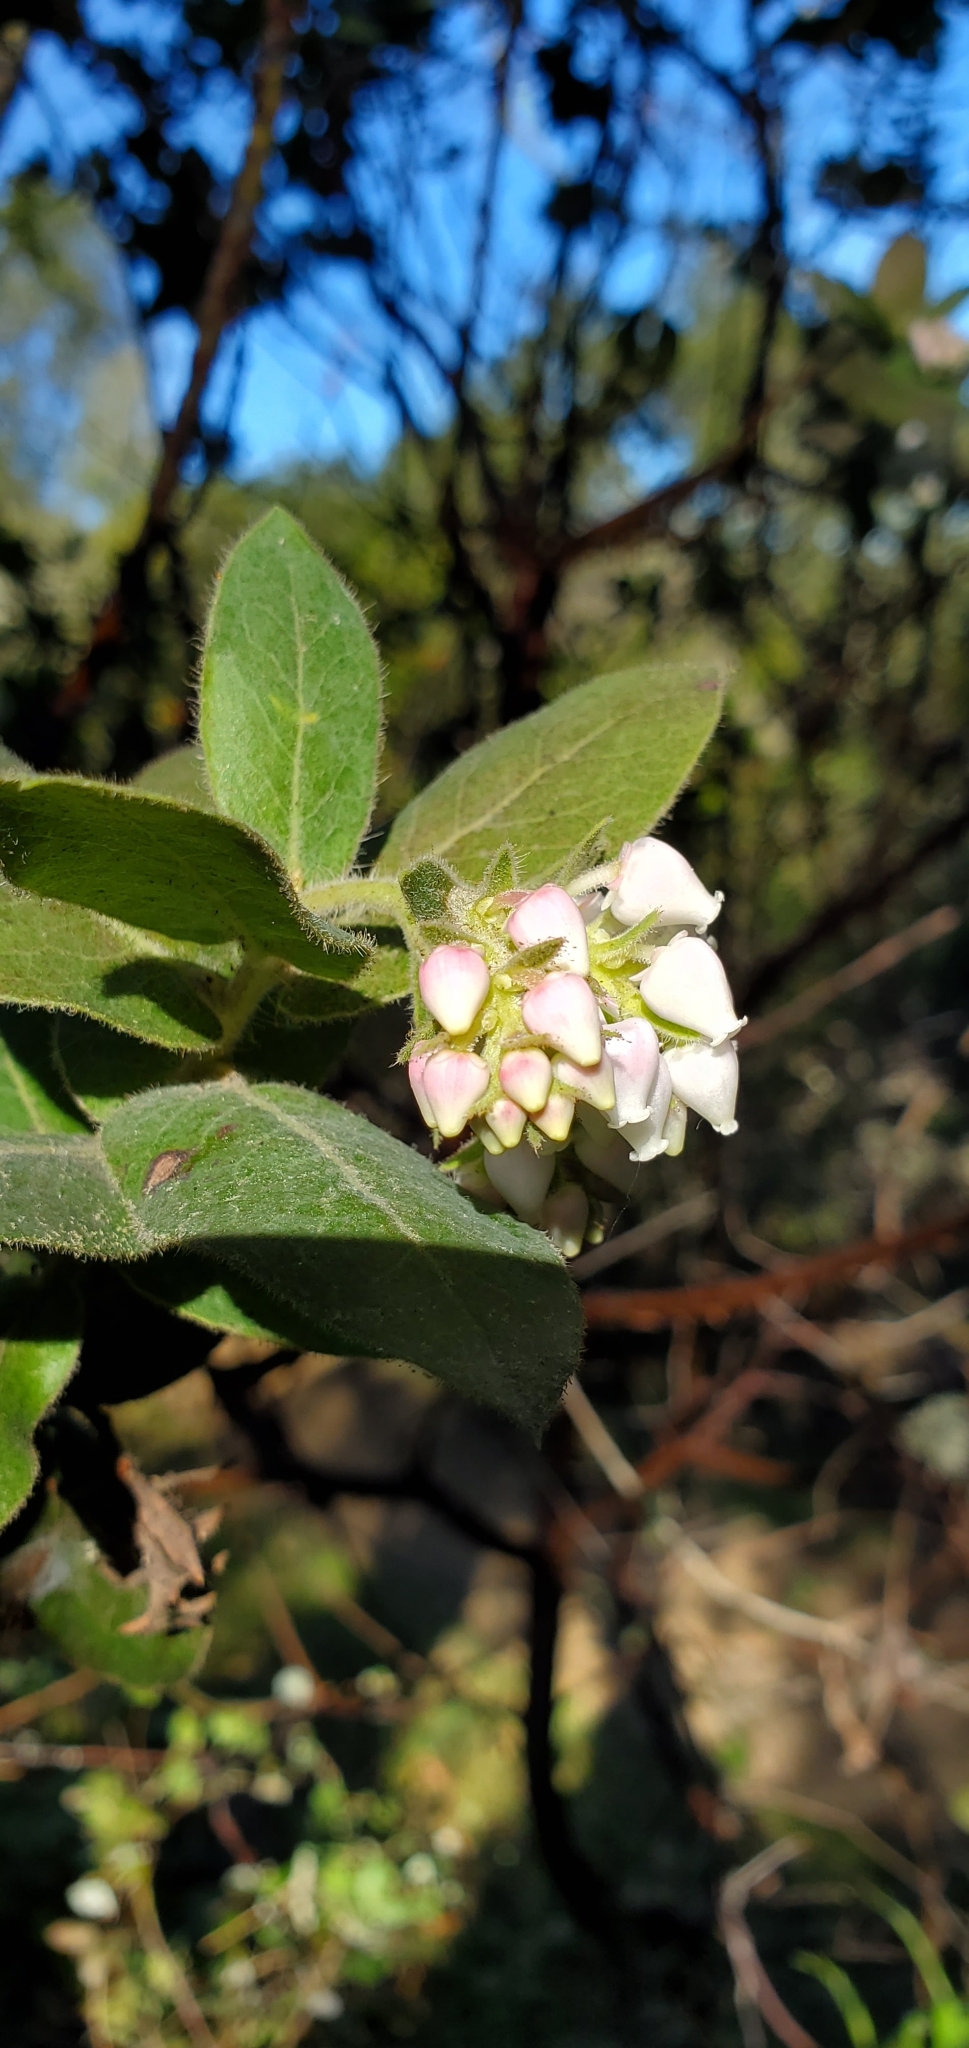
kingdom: Plantae
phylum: Tracheophyta
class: Magnoliopsida
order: Ericales
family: Ericaceae
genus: Arctostaphylos
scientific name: Arctostaphylos regismontana
